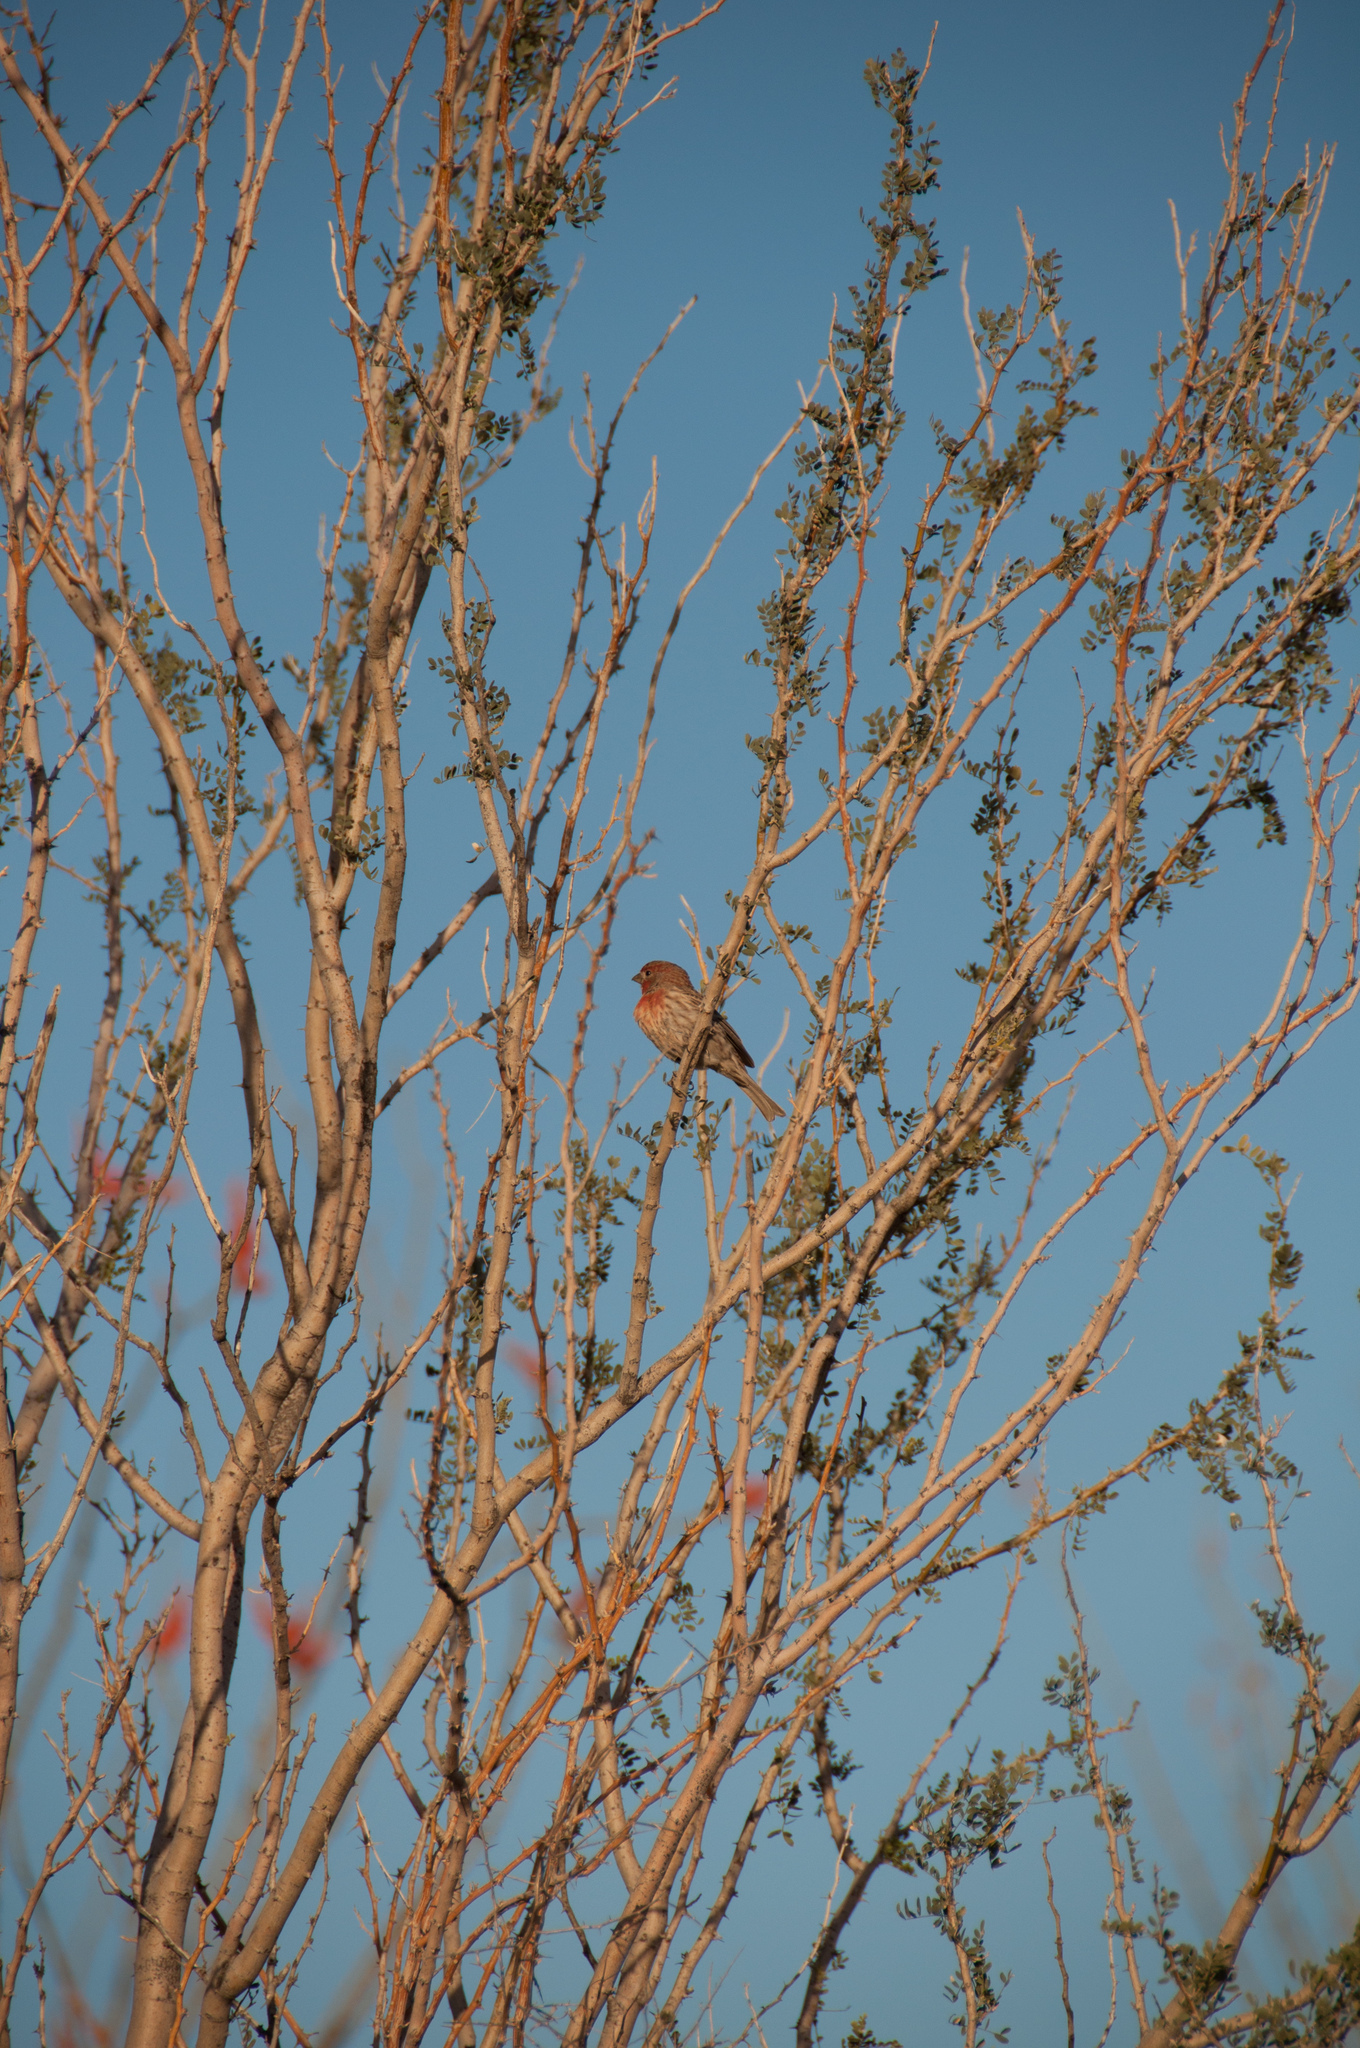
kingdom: Animalia
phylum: Chordata
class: Aves
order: Passeriformes
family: Fringillidae
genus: Haemorhous
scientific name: Haemorhous mexicanus
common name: House finch
